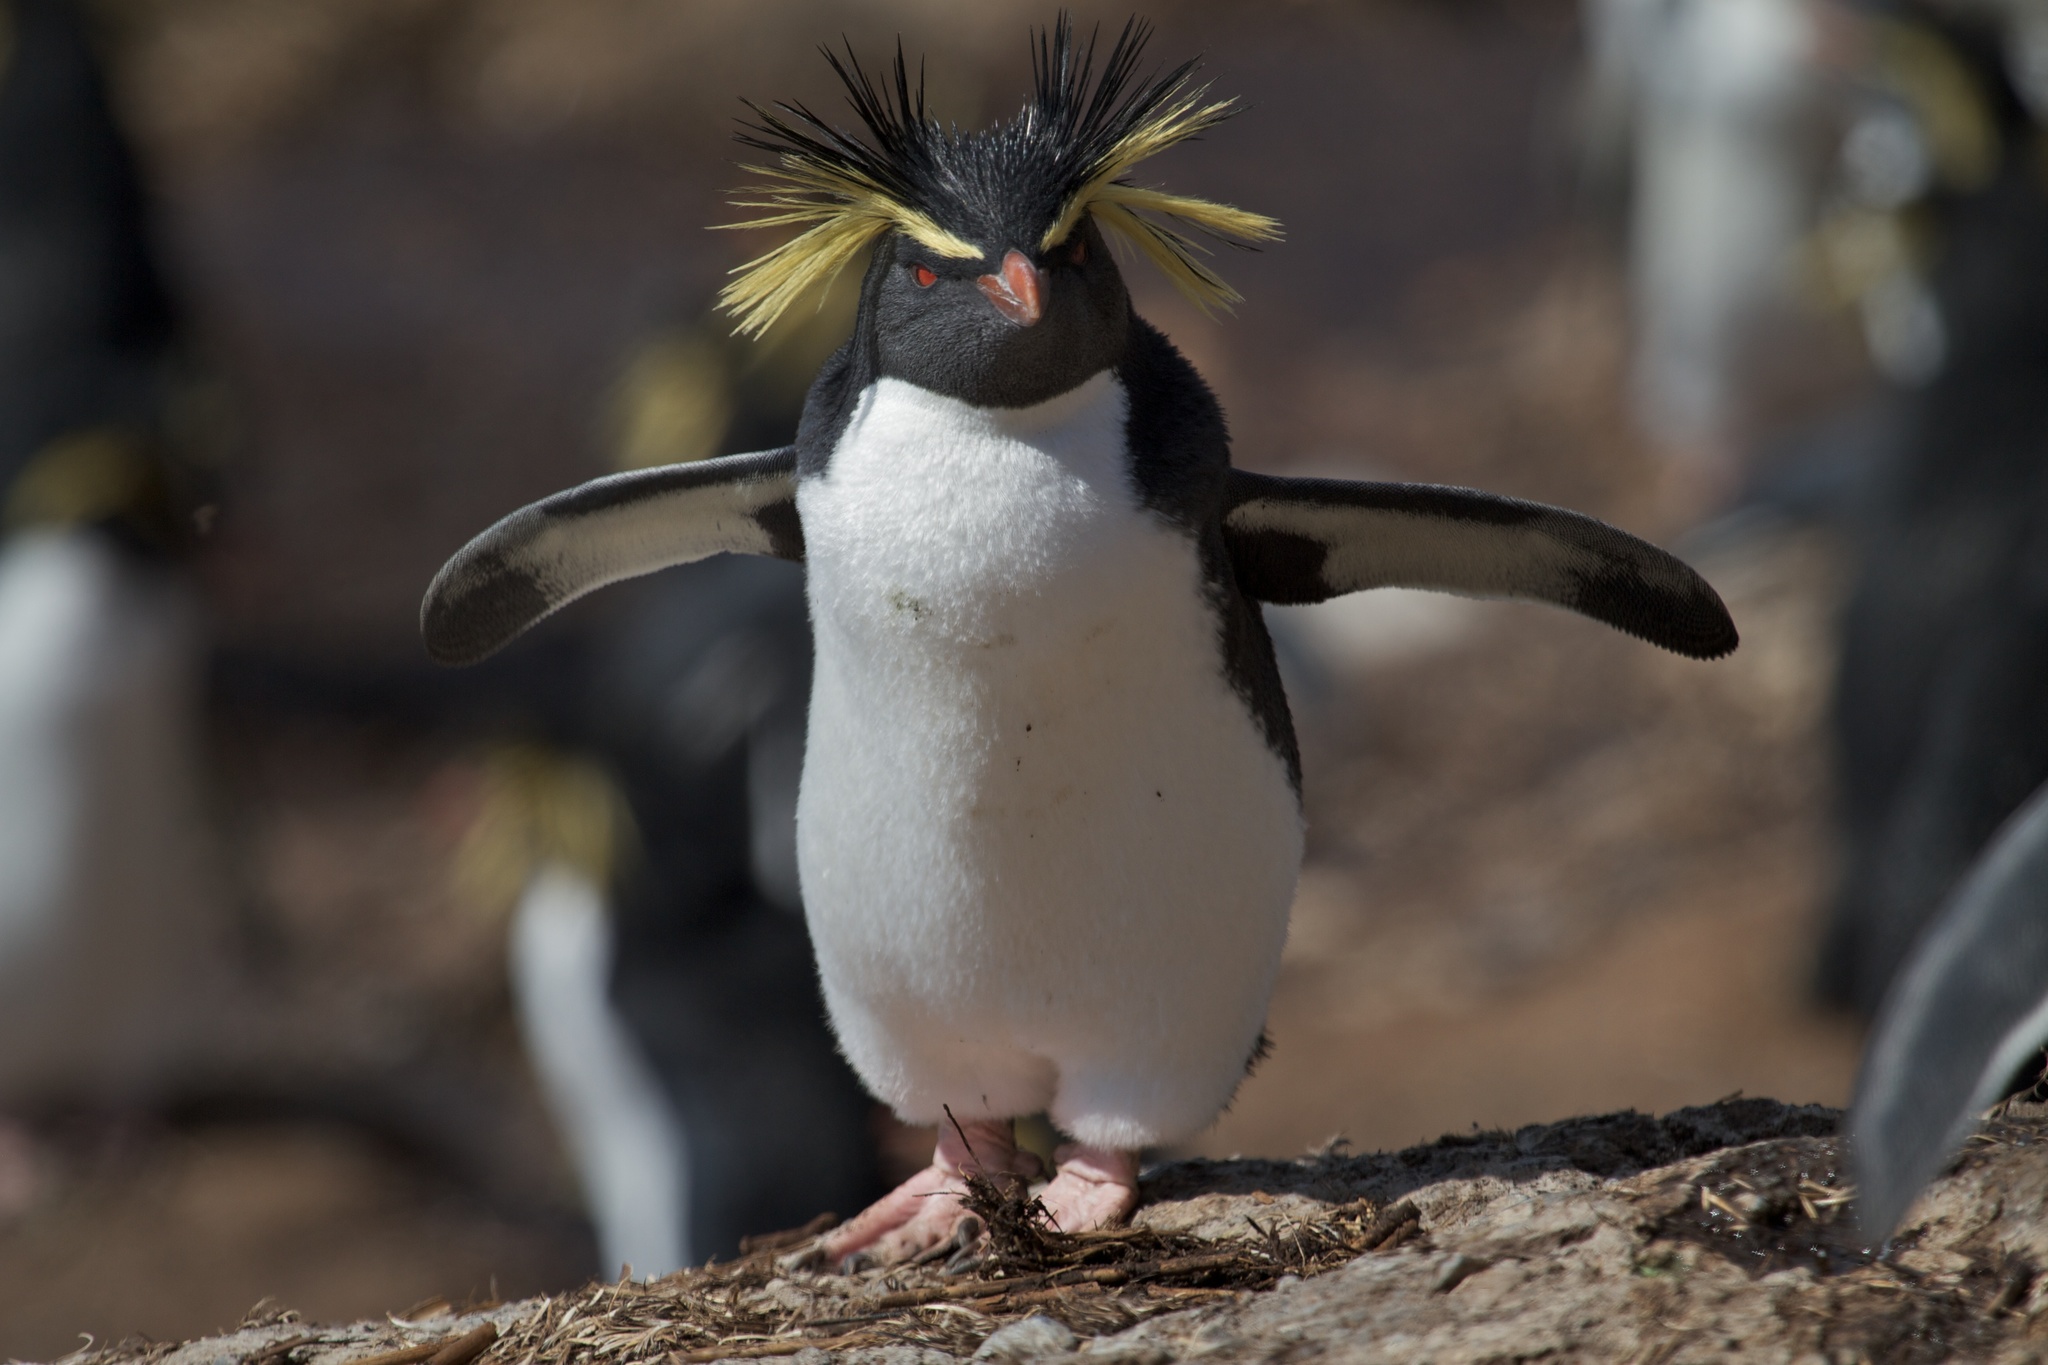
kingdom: Animalia
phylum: Chordata
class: Aves
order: Sphenisciformes
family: Spheniscidae
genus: Eudyptes
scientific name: Eudyptes moseleyi
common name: Northern rockhopper penguin
